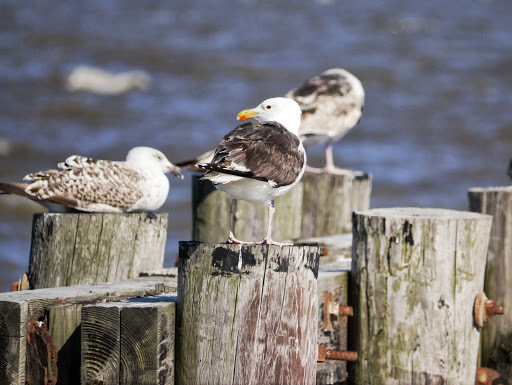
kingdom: Animalia
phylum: Chordata
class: Aves
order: Charadriiformes
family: Laridae
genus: Larus
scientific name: Larus marinus
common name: Great black-backed gull
